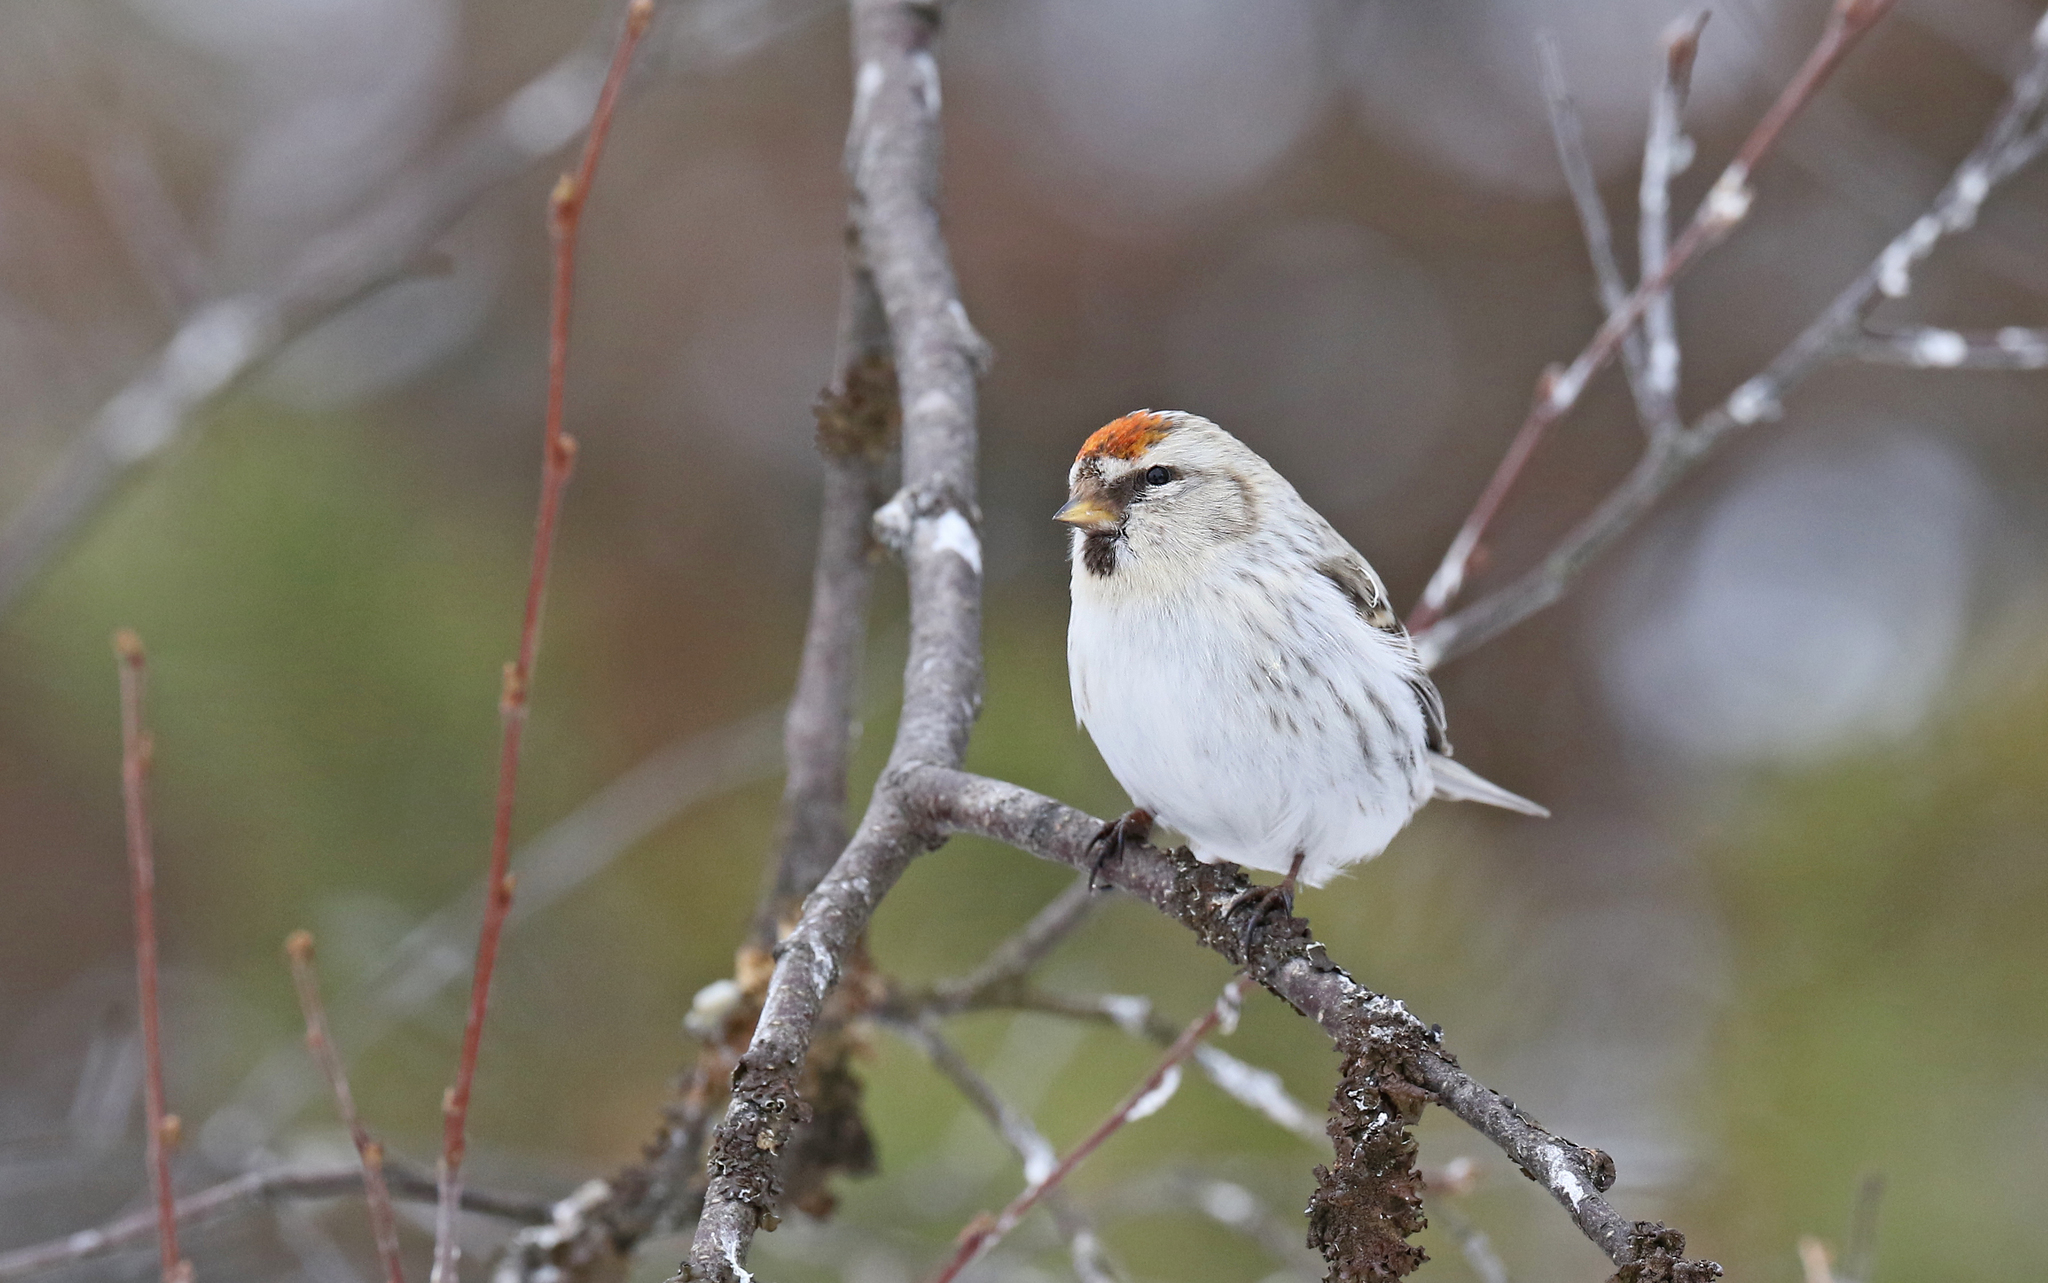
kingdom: Animalia
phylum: Chordata
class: Aves
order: Passeriformes
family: Fringillidae
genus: Acanthis
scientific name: Acanthis hornemanni
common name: Arctic redpoll
